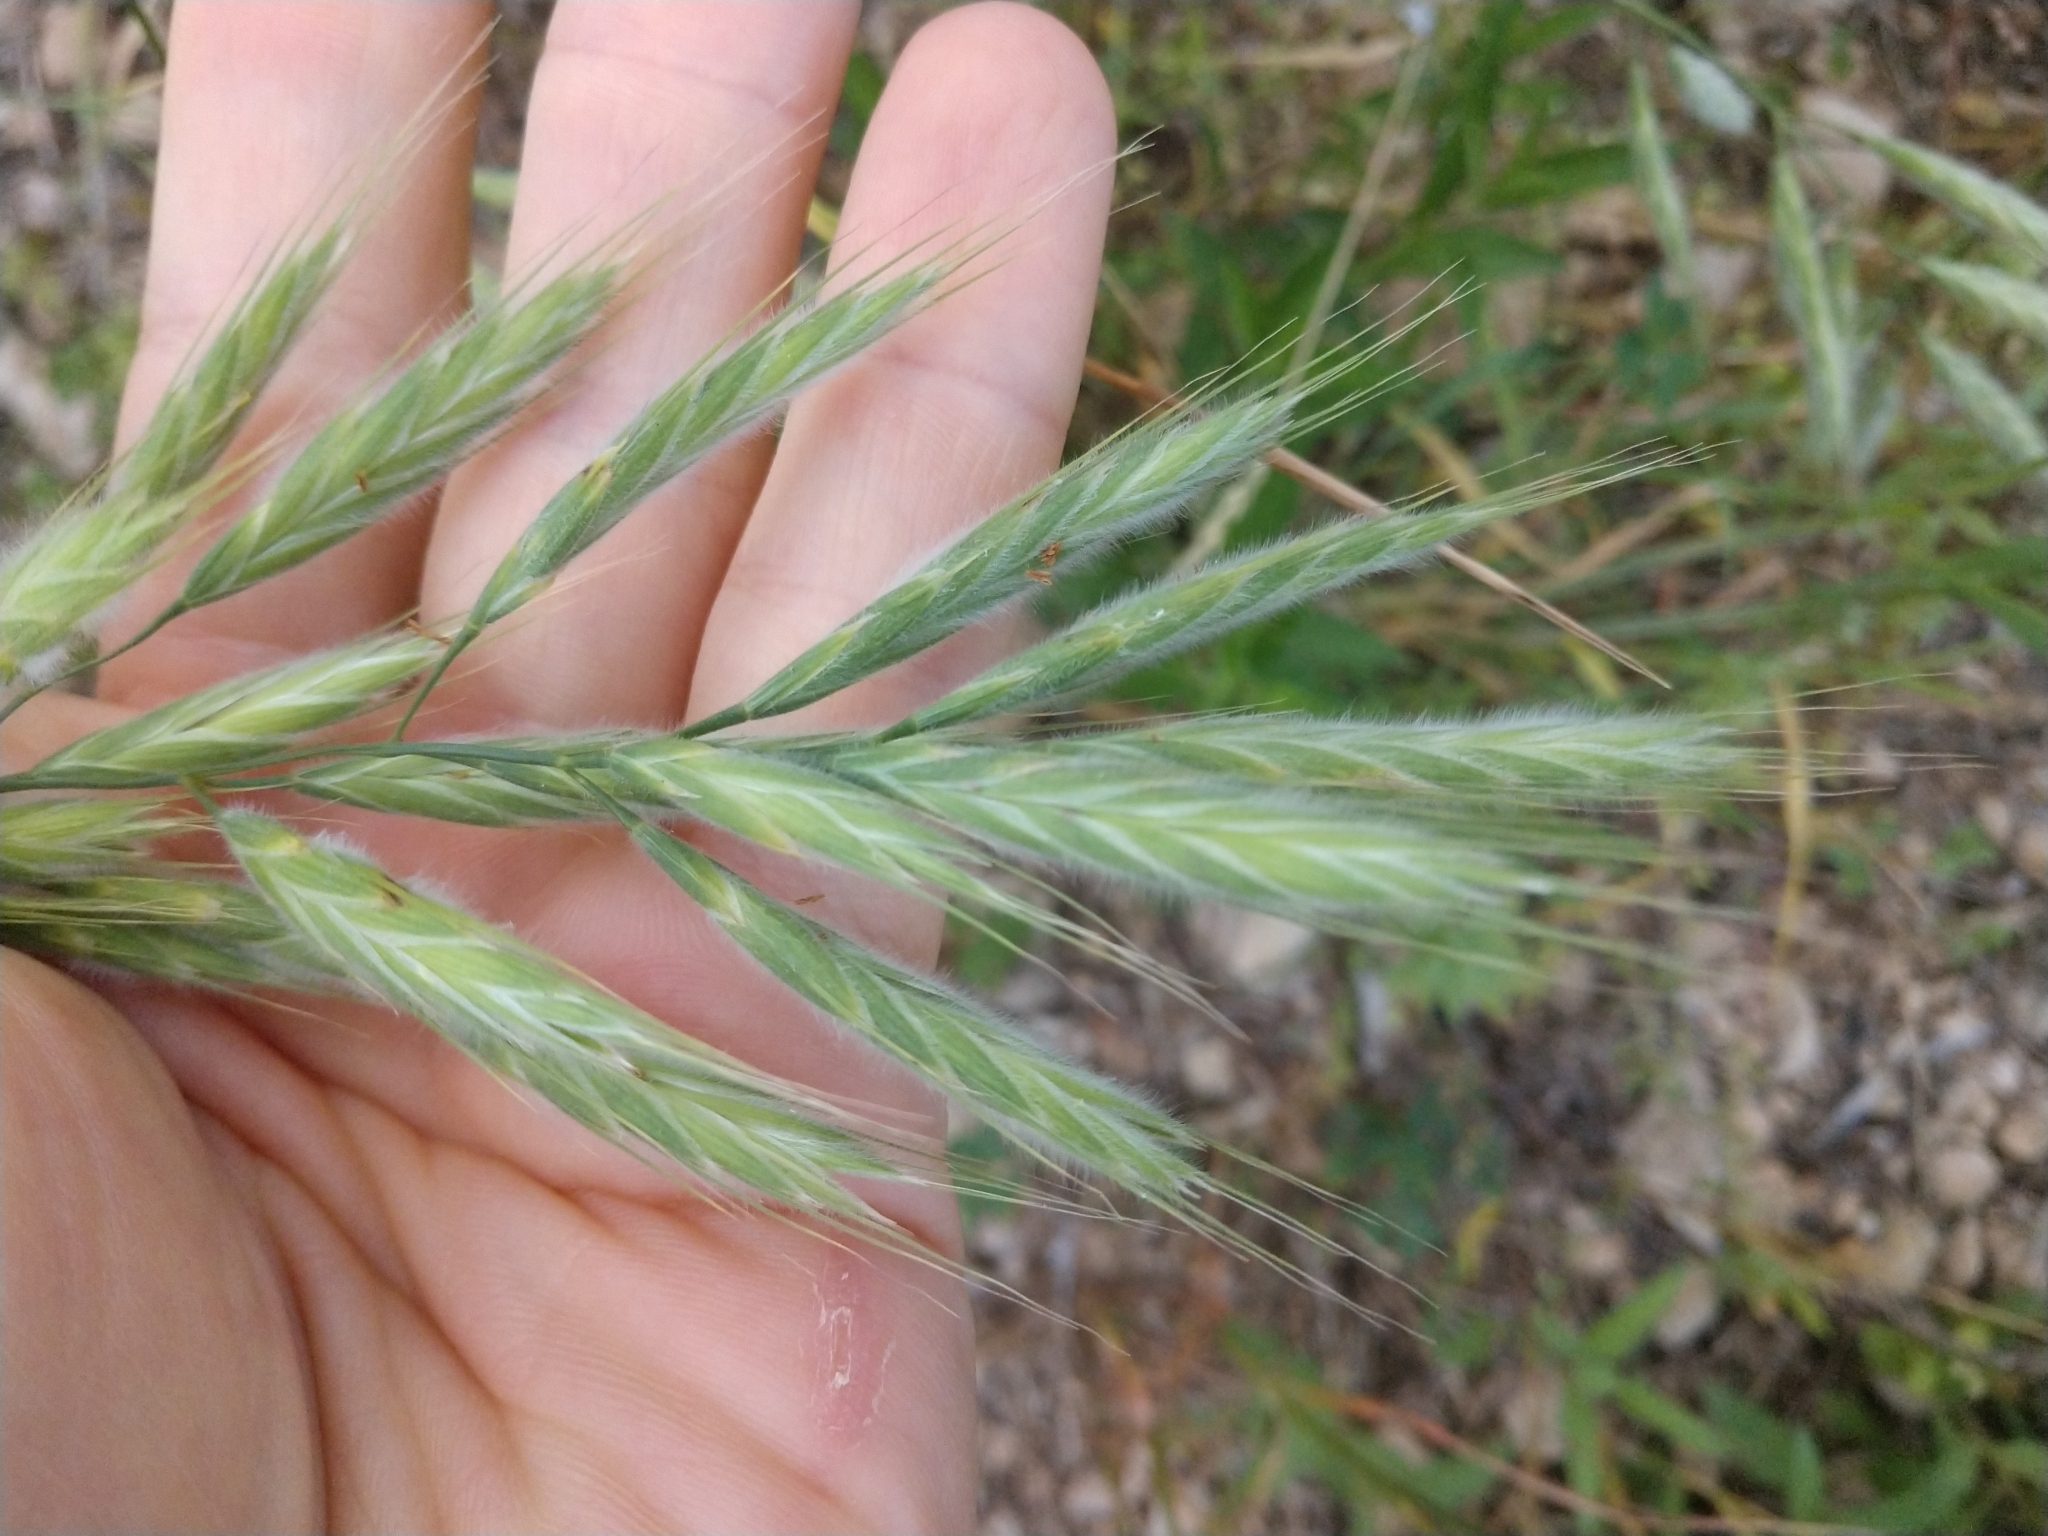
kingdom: Plantae
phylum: Tracheophyta
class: Liliopsida
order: Poales
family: Poaceae
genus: Bromus
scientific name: Bromus lanceolatus
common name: Mediterranean brome
